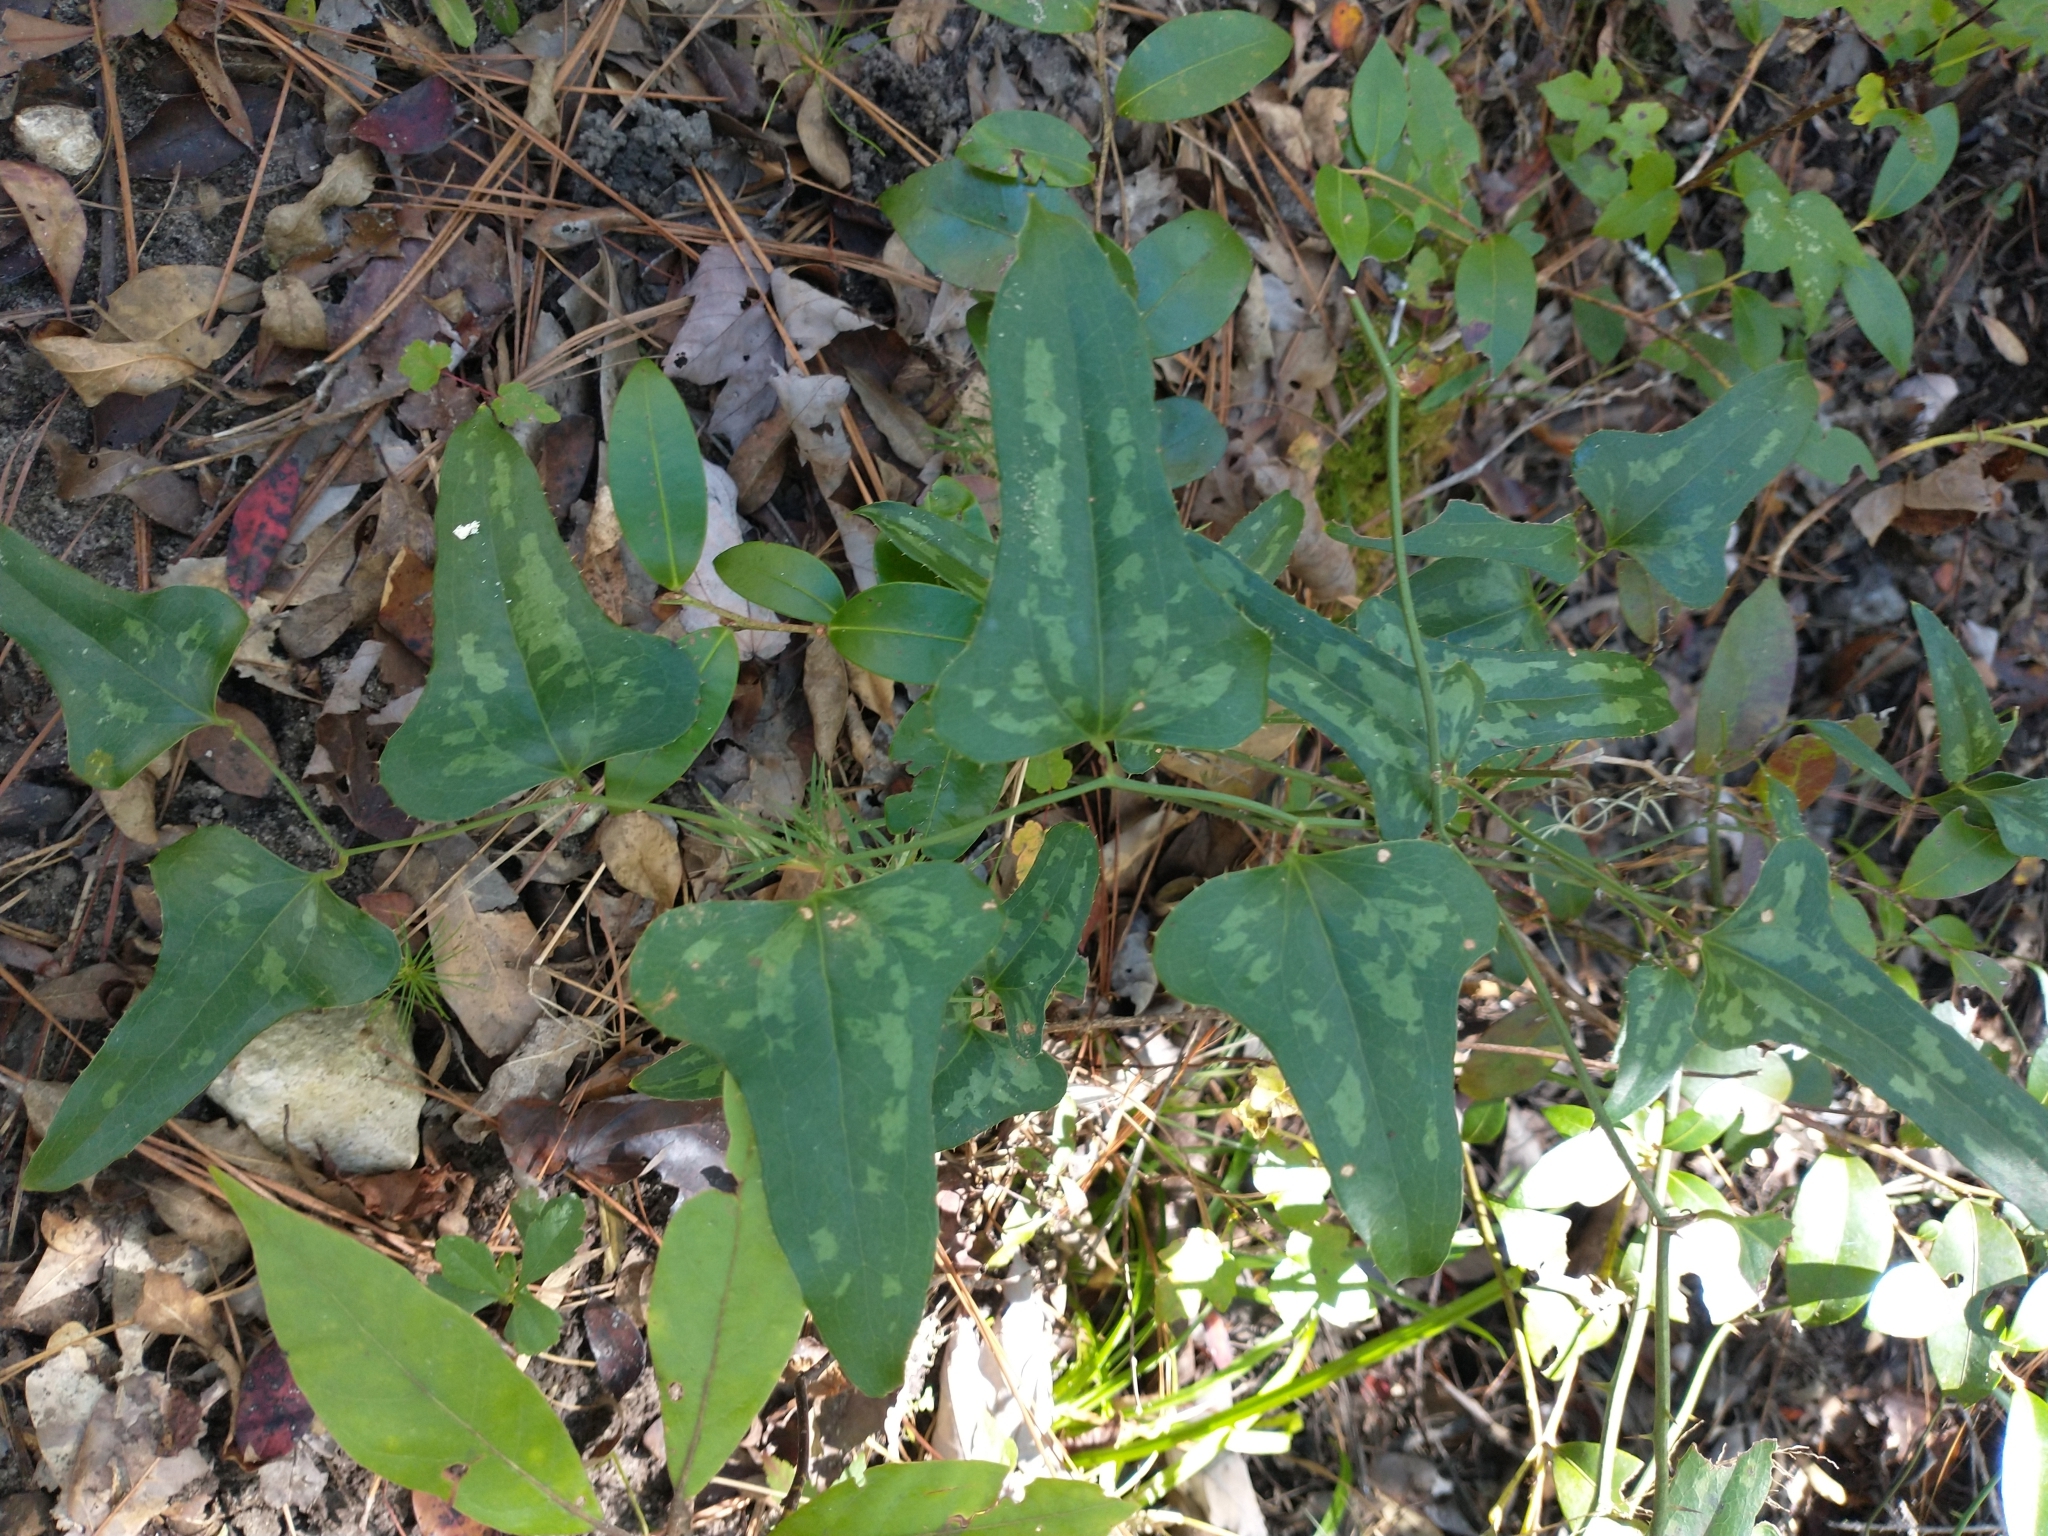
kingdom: Plantae
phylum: Tracheophyta
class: Liliopsida
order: Liliales
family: Smilacaceae
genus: Smilax
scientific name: Smilax bona-nox
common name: Catbrier
